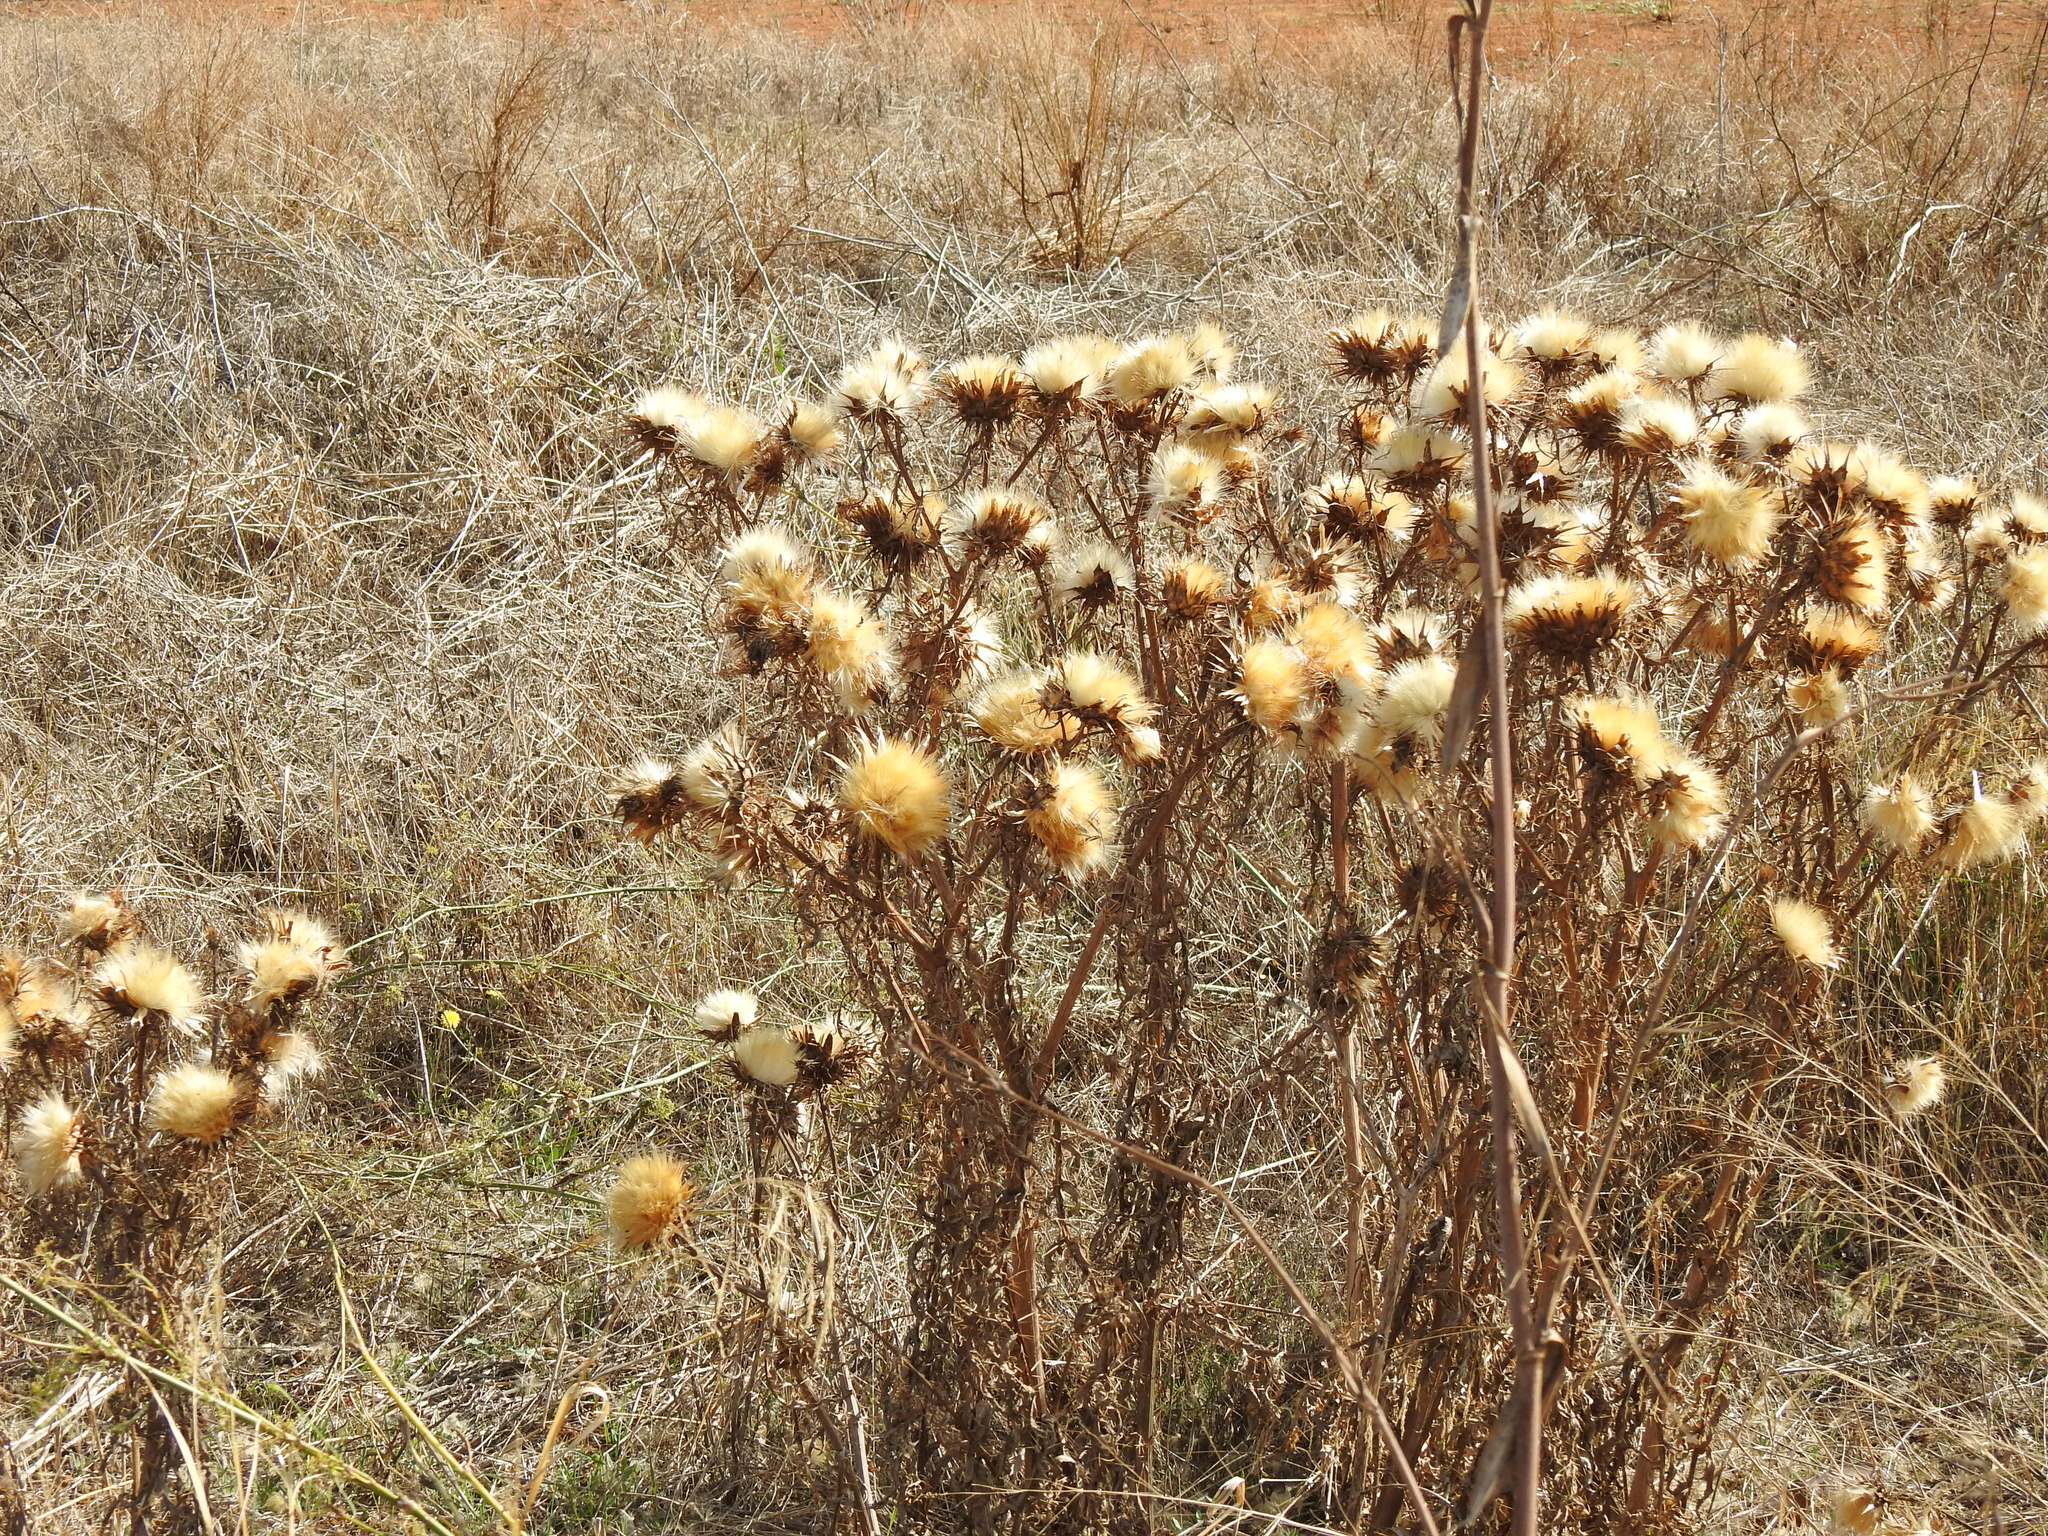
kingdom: Plantae
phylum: Tracheophyta
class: Magnoliopsida
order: Asterales
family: Asteraceae
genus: Cynara
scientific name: Cynara cardunculus
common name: Globe artichoke
